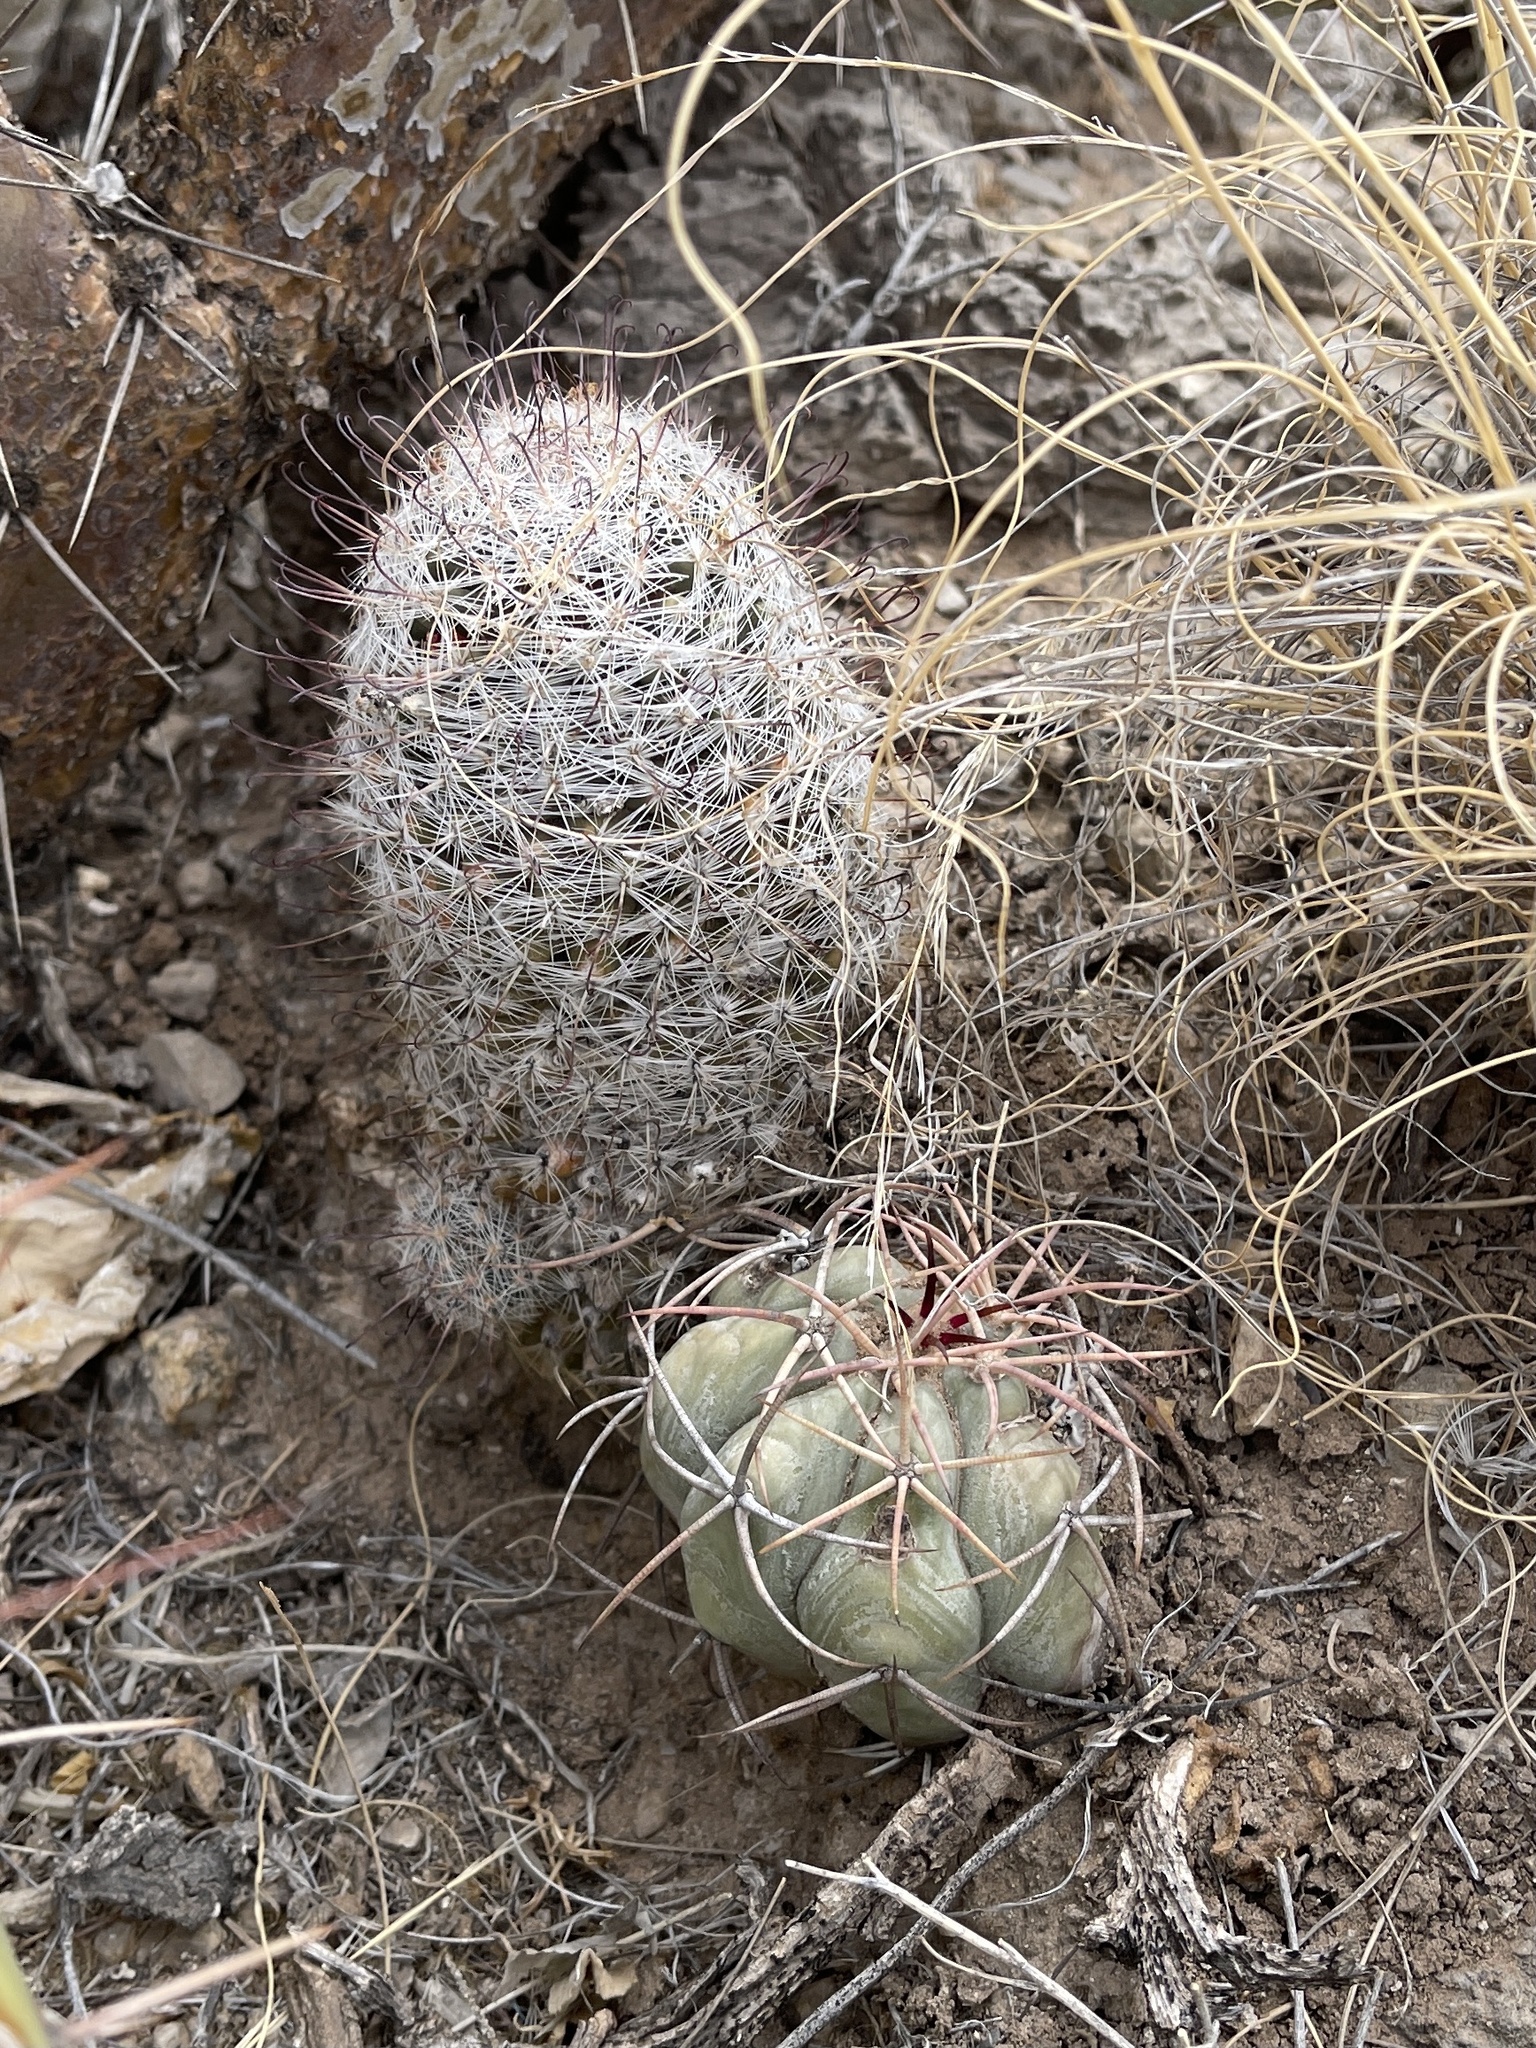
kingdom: Plantae
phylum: Tracheophyta
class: Magnoliopsida
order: Caryophyllales
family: Cactaceae
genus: Cochemiea
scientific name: Cochemiea grahamii
